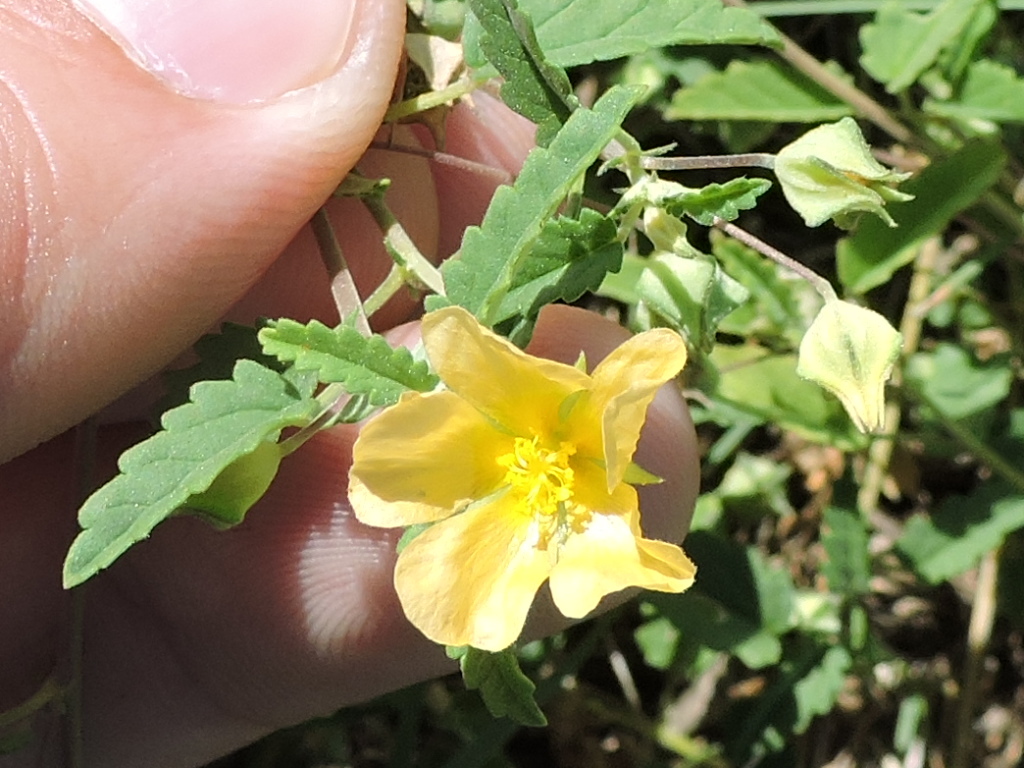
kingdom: Plantae
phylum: Tracheophyta
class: Magnoliopsida
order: Malvales
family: Malvaceae
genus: Sida
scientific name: Sida abutilifolia
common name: Spreading fanpetals
